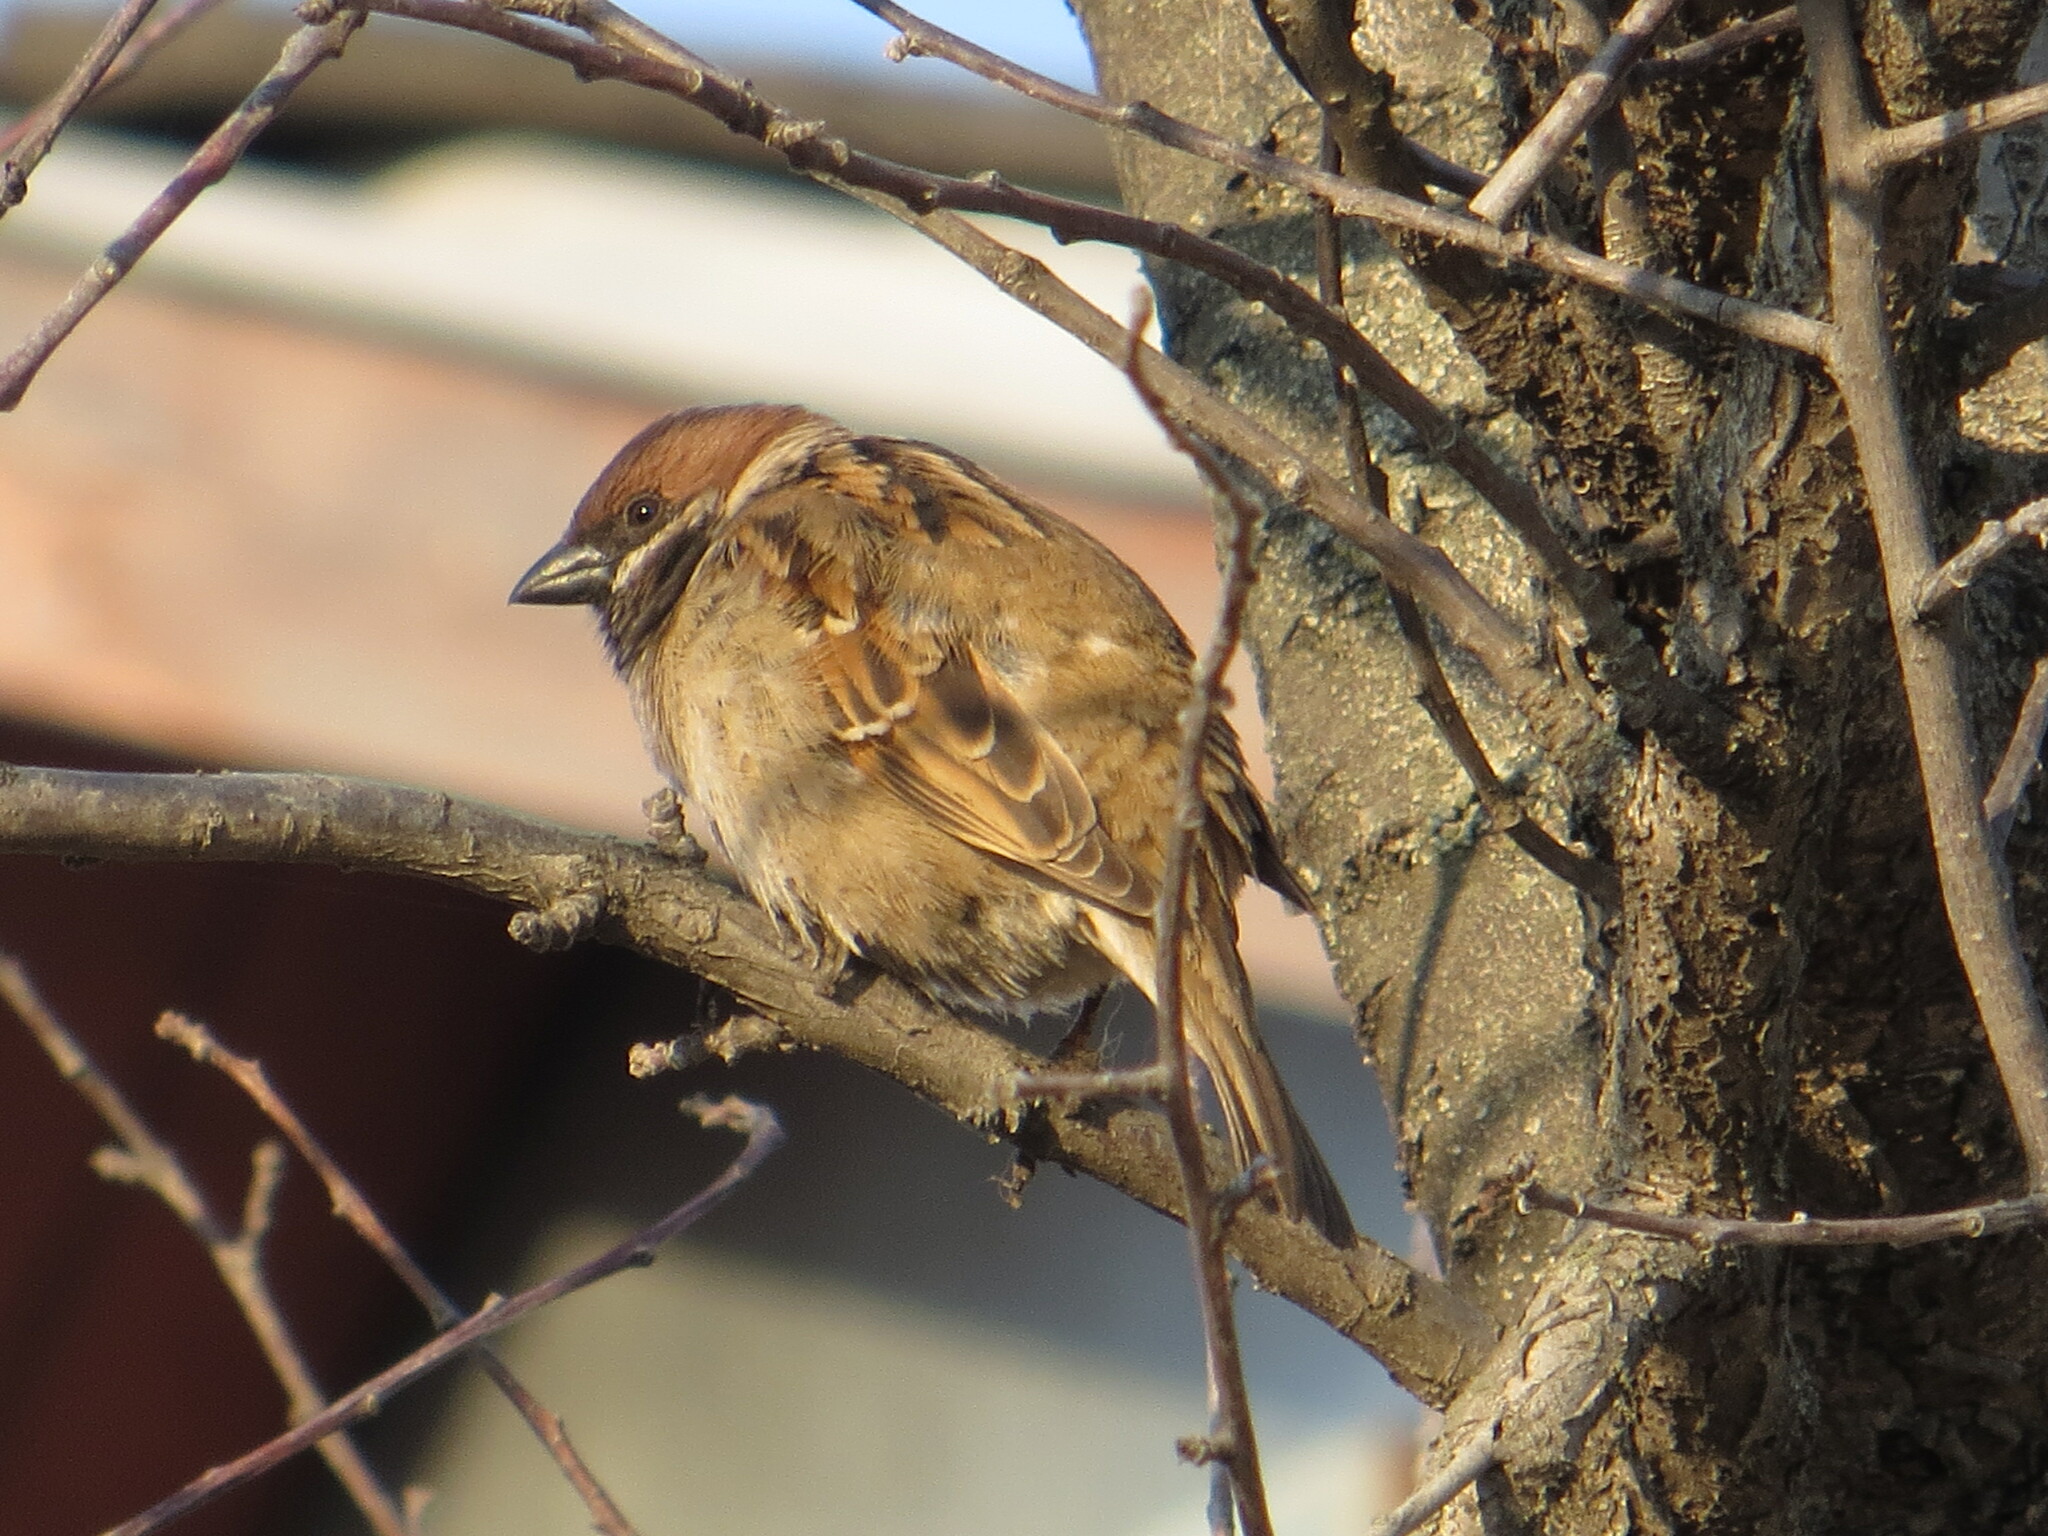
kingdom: Animalia
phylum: Chordata
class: Aves
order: Passeriformes
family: Passeridae
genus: Passer
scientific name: Passer montanus
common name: Eurasian tree sparrow
